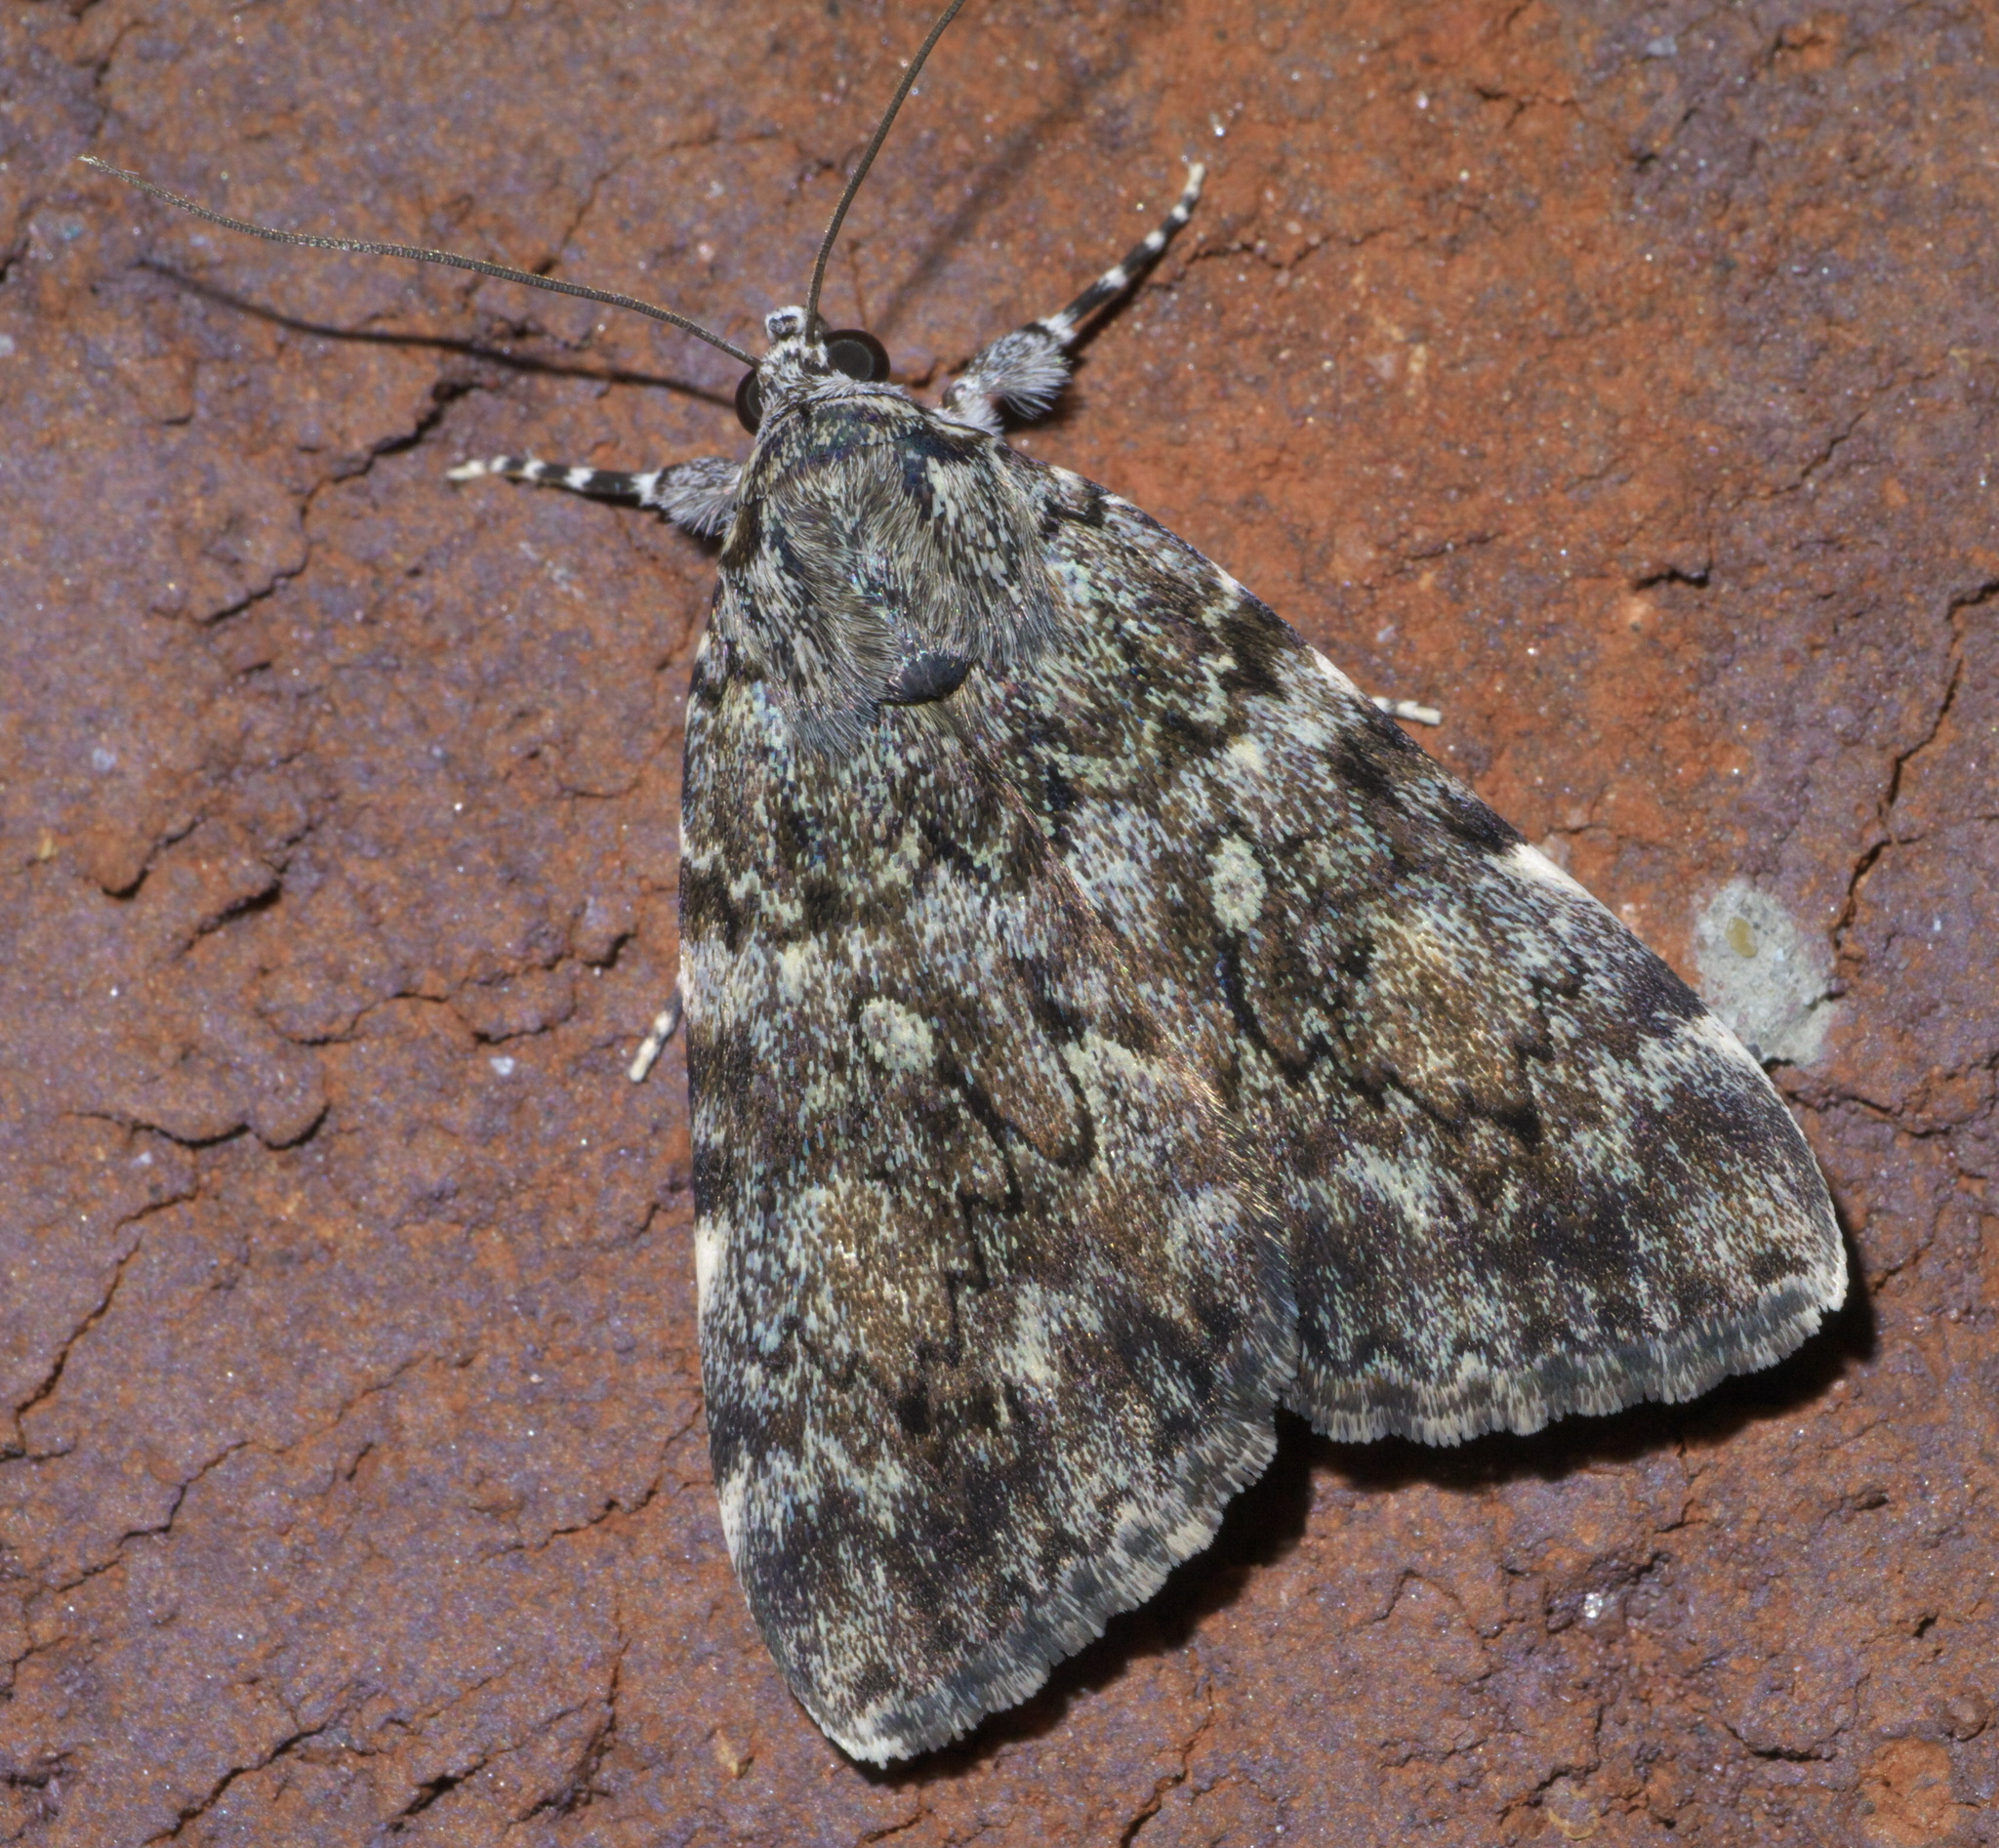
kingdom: Animalia
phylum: Arthropoda
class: Insecta
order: Lepidoptera
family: Erebidae
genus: Catocala
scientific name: Catocala lineella
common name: Little lined underwing
